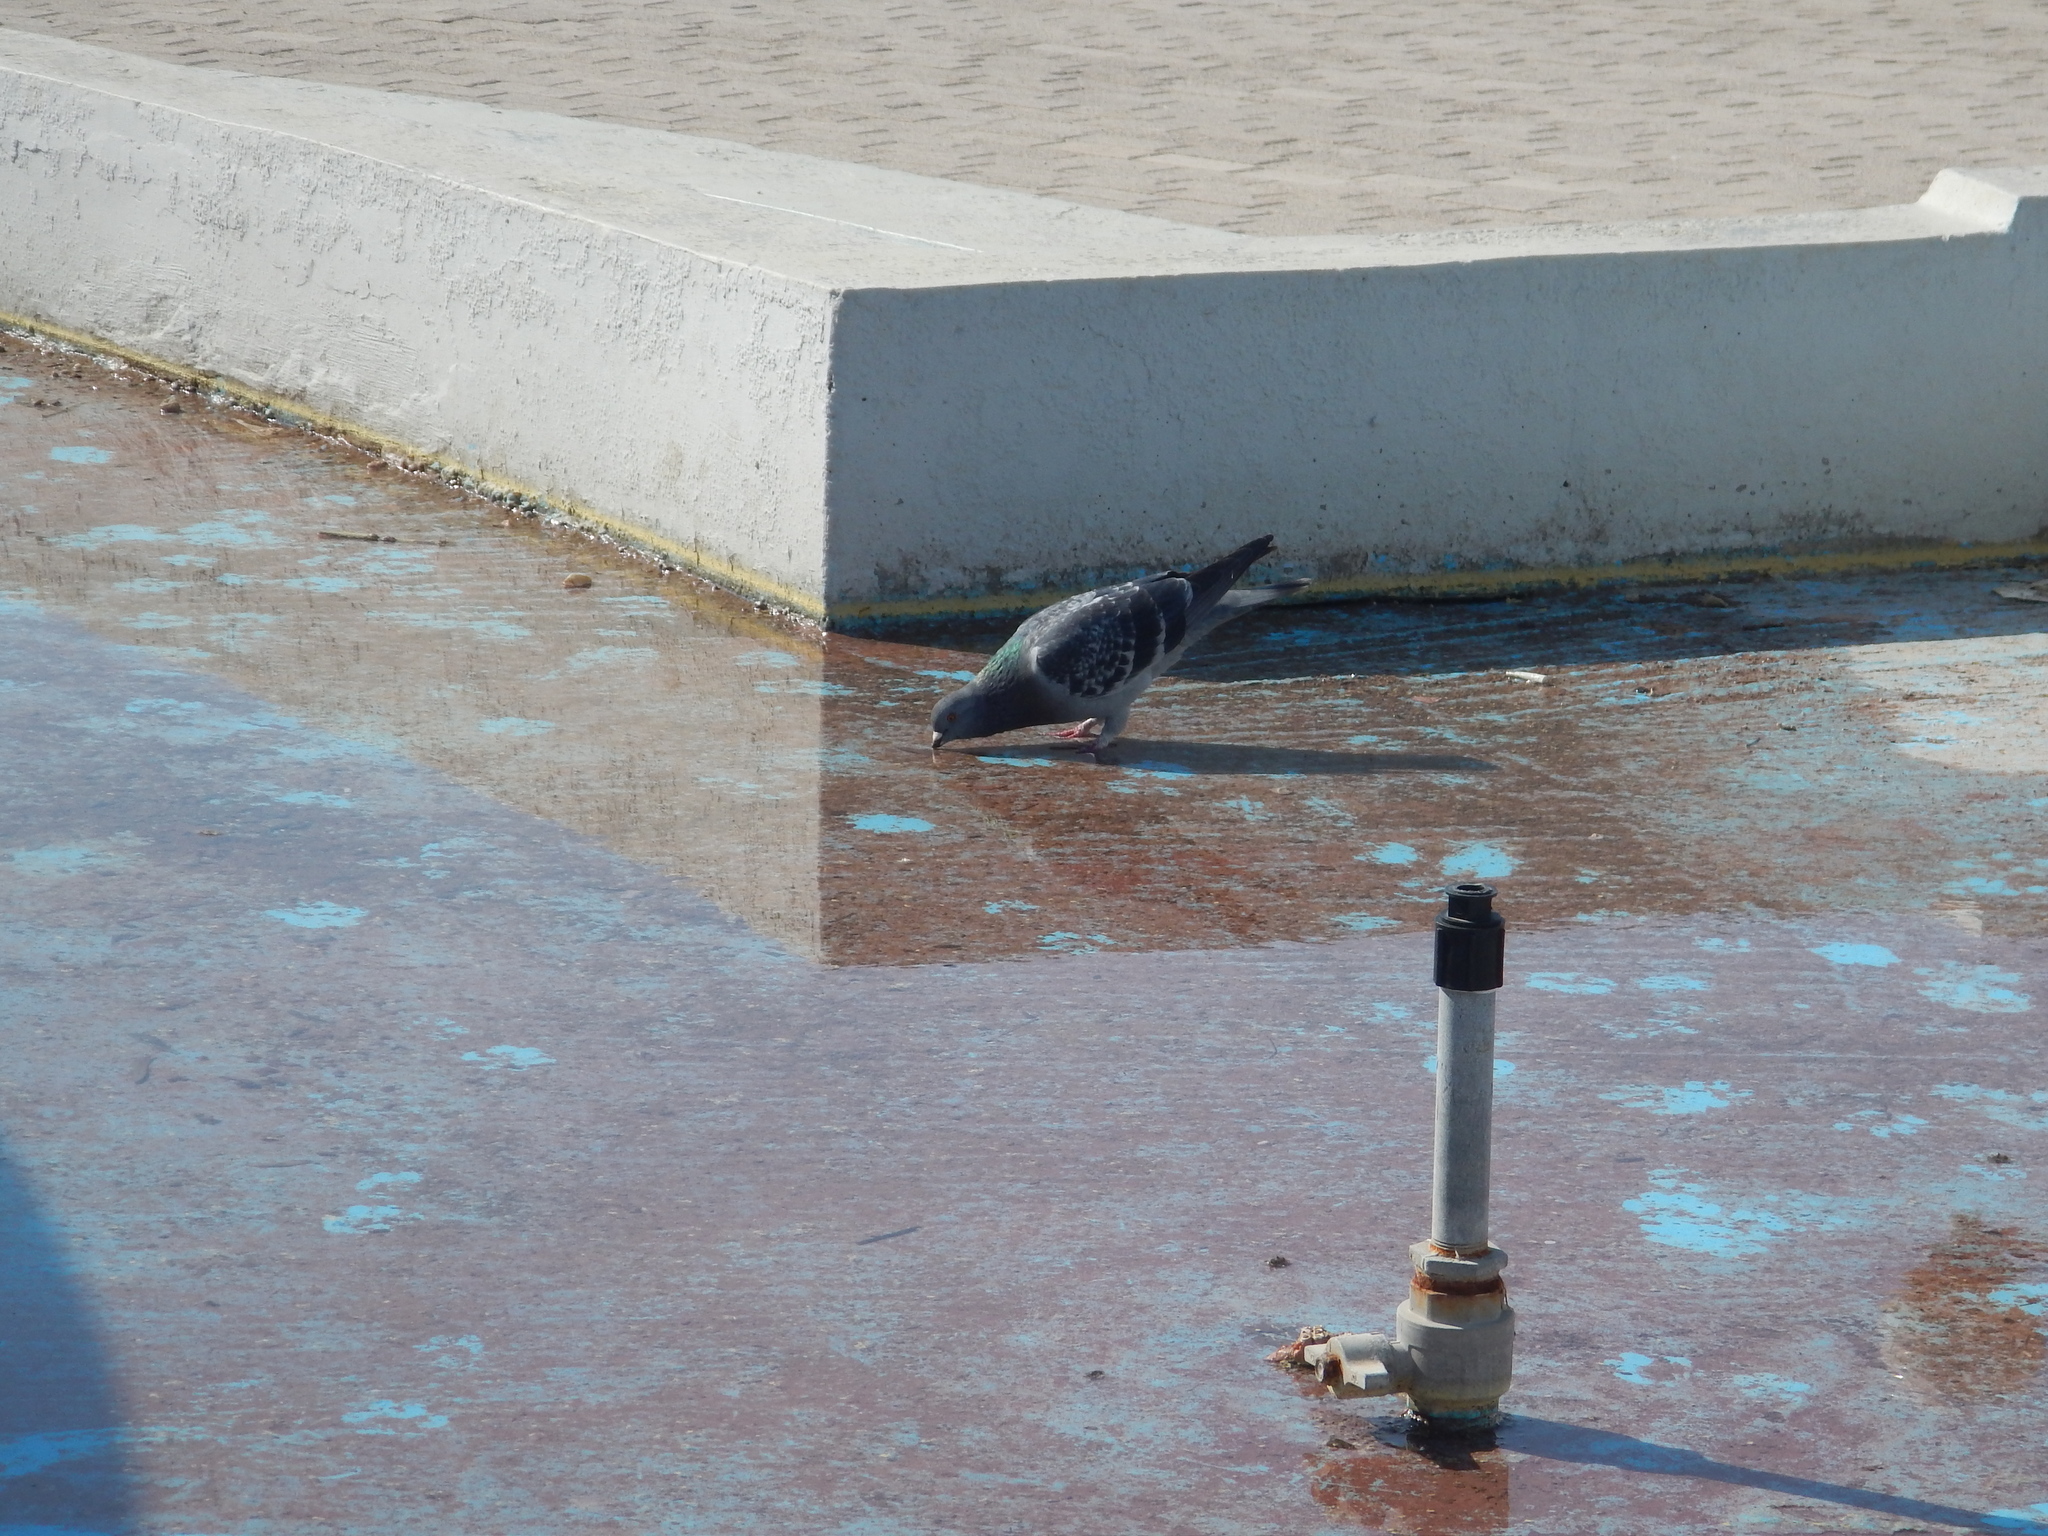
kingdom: Animalia
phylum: Chordata
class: Aves
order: Columbiformes
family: Columbidae
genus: Columba
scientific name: Columba livia
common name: Rock pigeon
